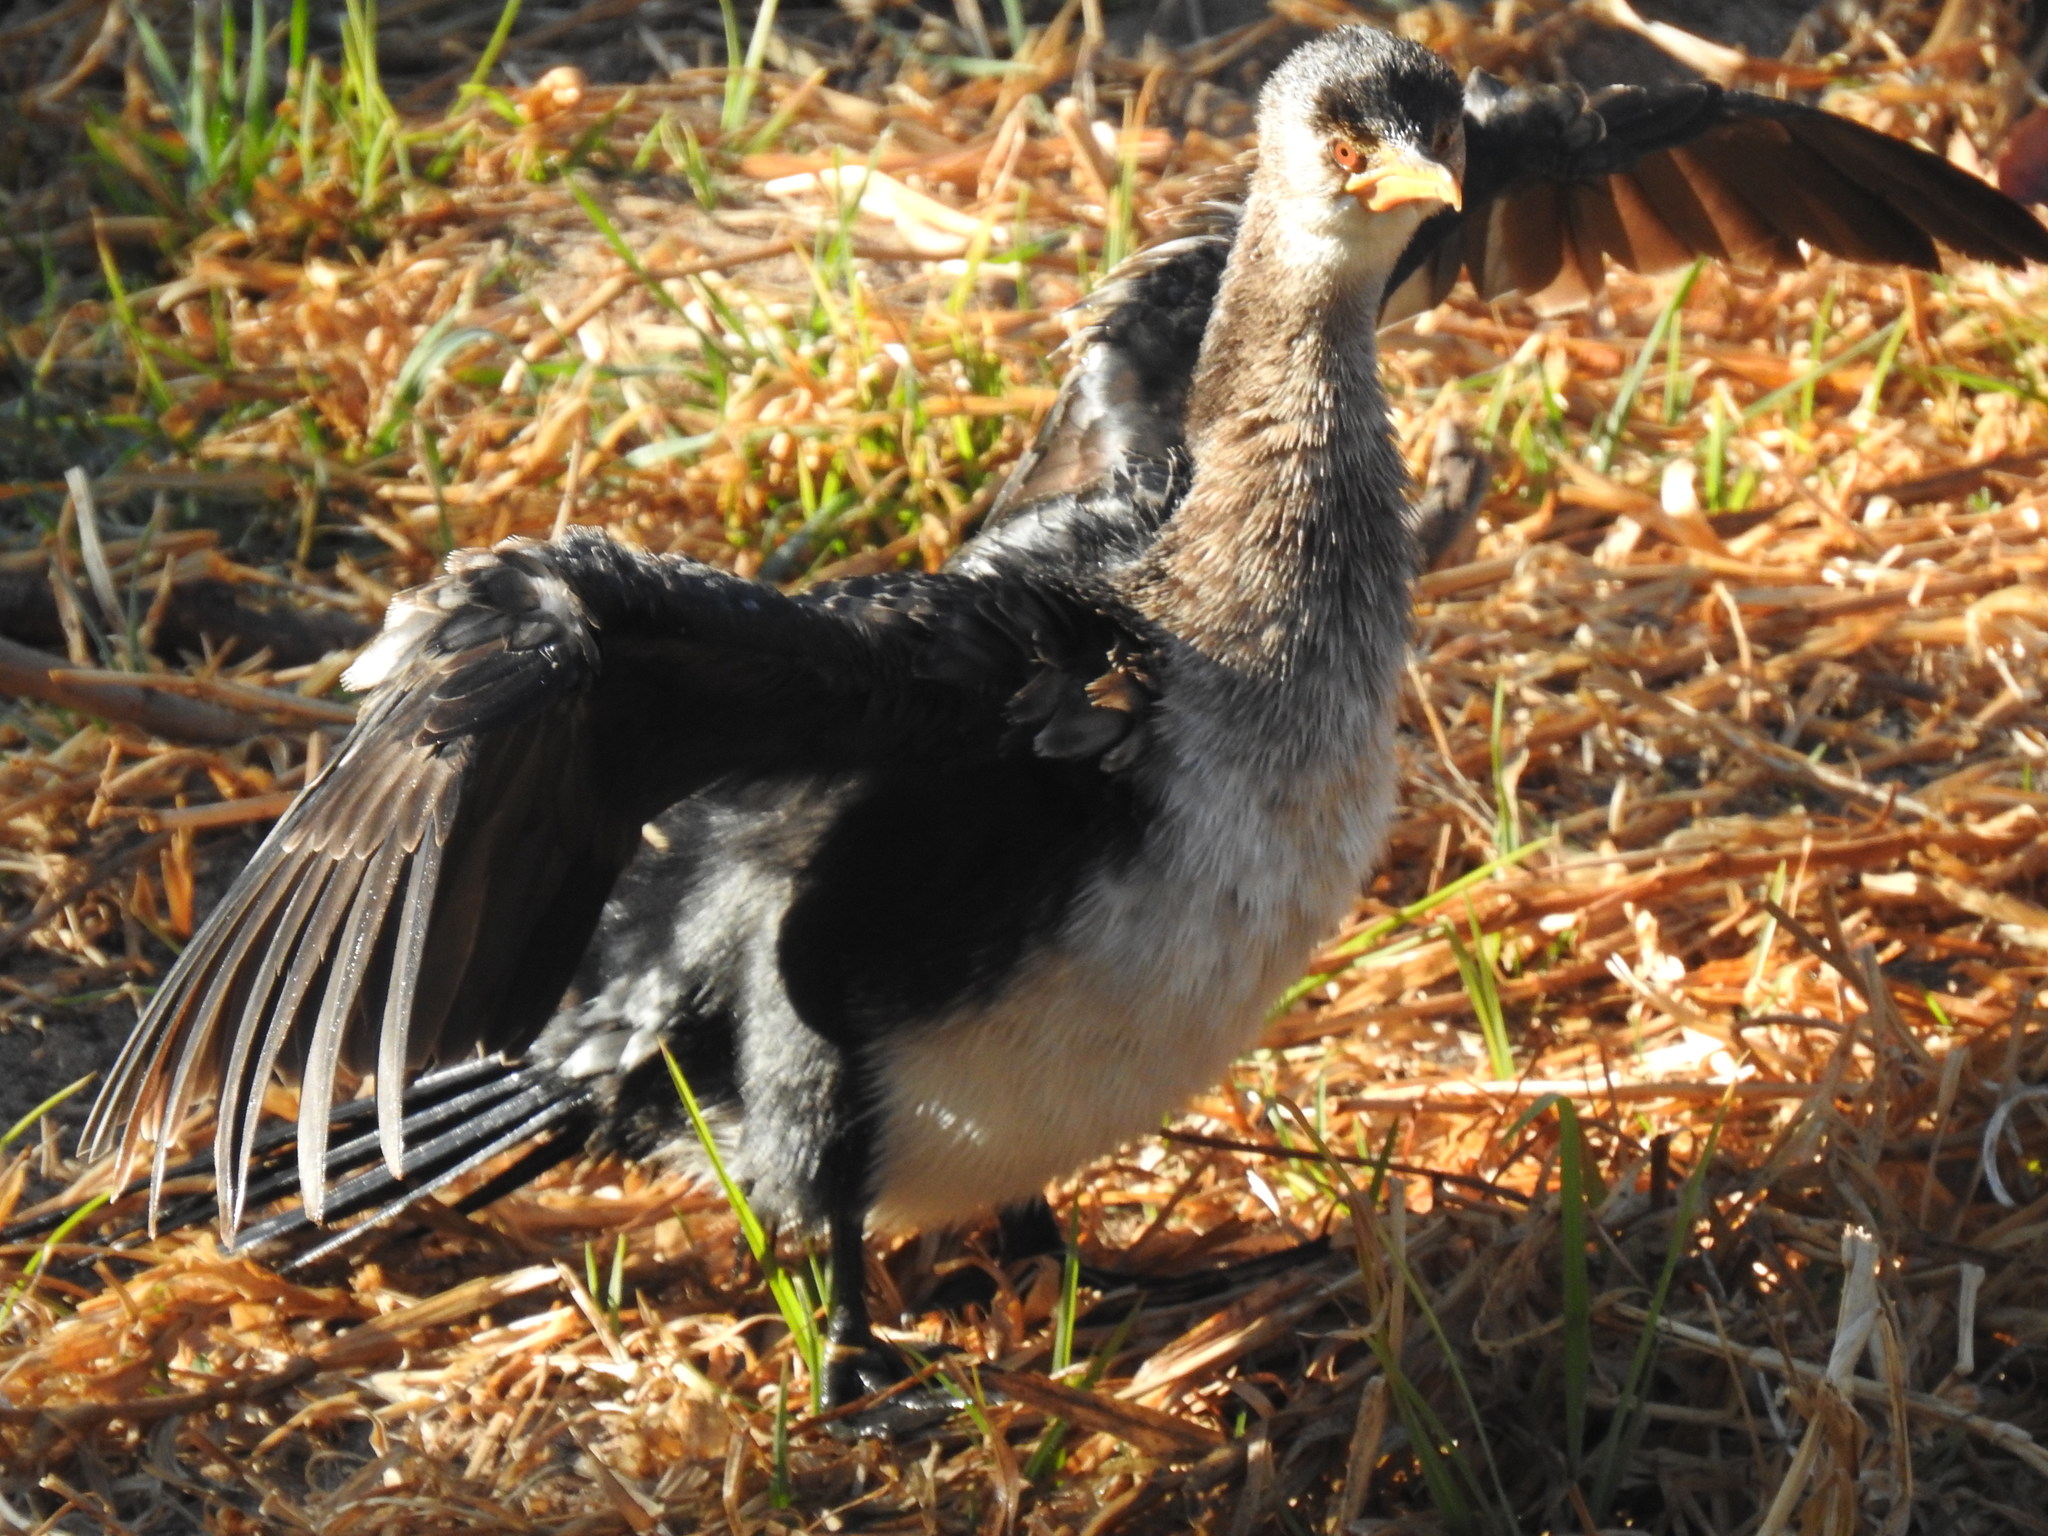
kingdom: Animalia
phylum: Chordata
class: Aves
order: Suliformes
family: Phalacrocoracidae
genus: Microcarbo
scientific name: Microcarbo africanus
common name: Long-tailed cormorant
